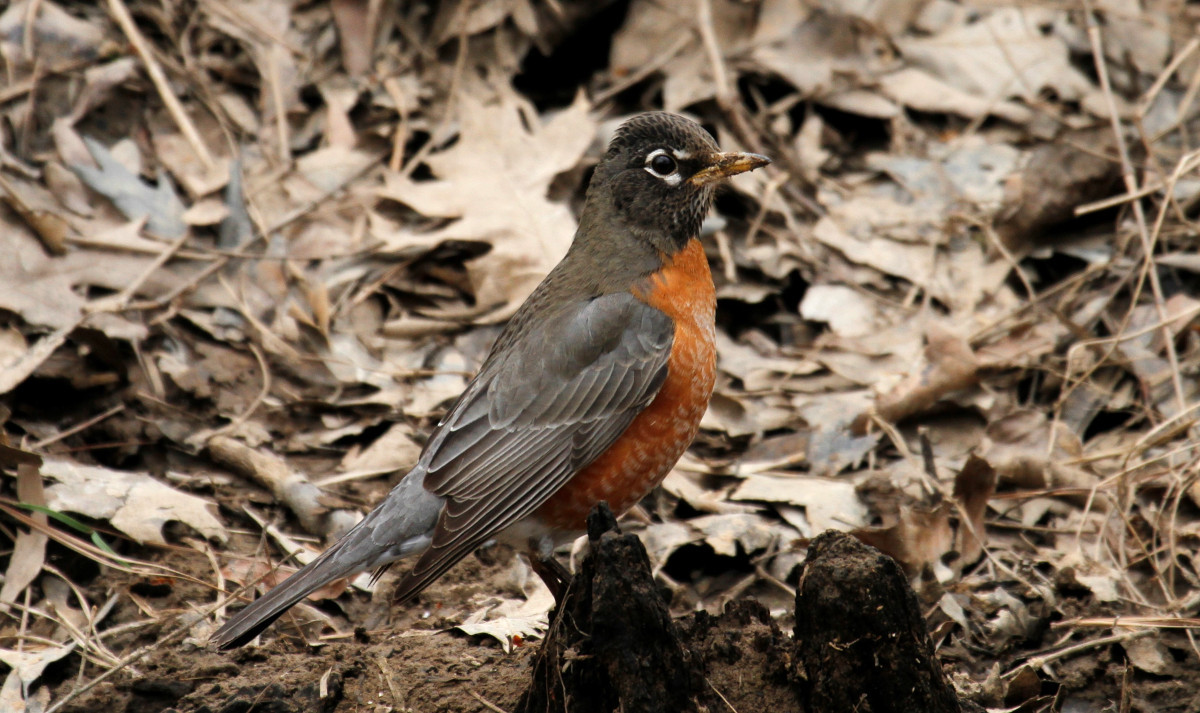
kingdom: Animalia
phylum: Chordata
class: Aves
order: Passeriformes
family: Turdidae
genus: Turdus
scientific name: Turdus migratorius
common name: American robin
